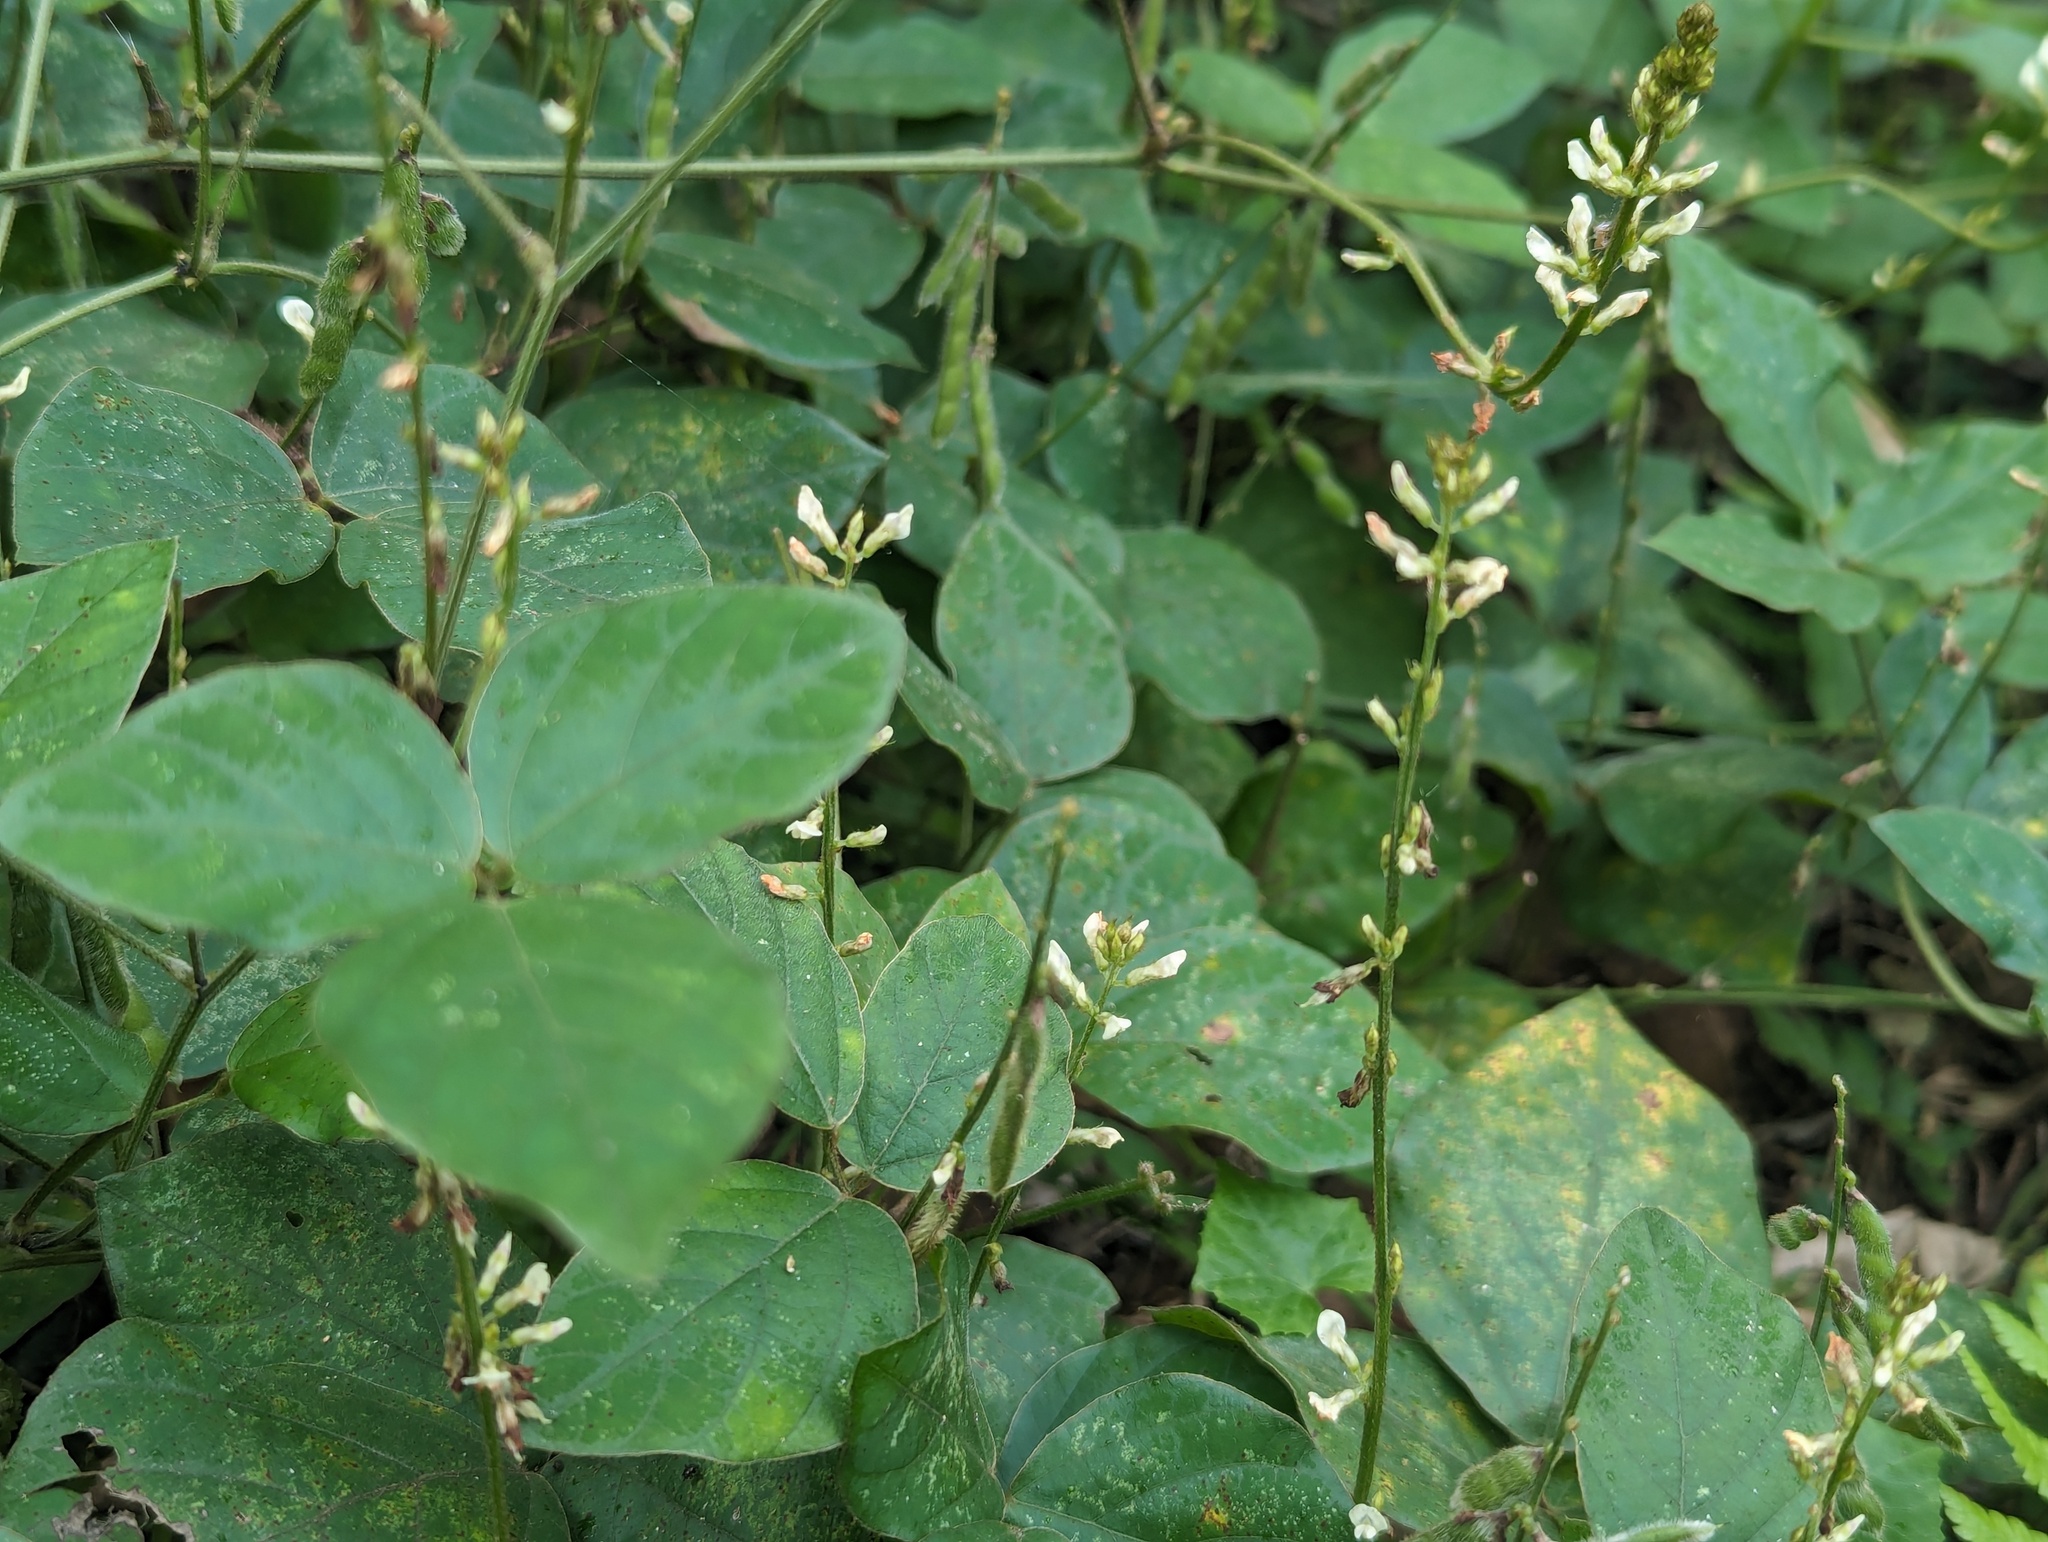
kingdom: Plantae
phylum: Tracheophyta
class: Magnoliopsida
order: Fabales
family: Fabaceae
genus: Neonotonia
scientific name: Neonotonia wightii
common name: Perennial soybean
